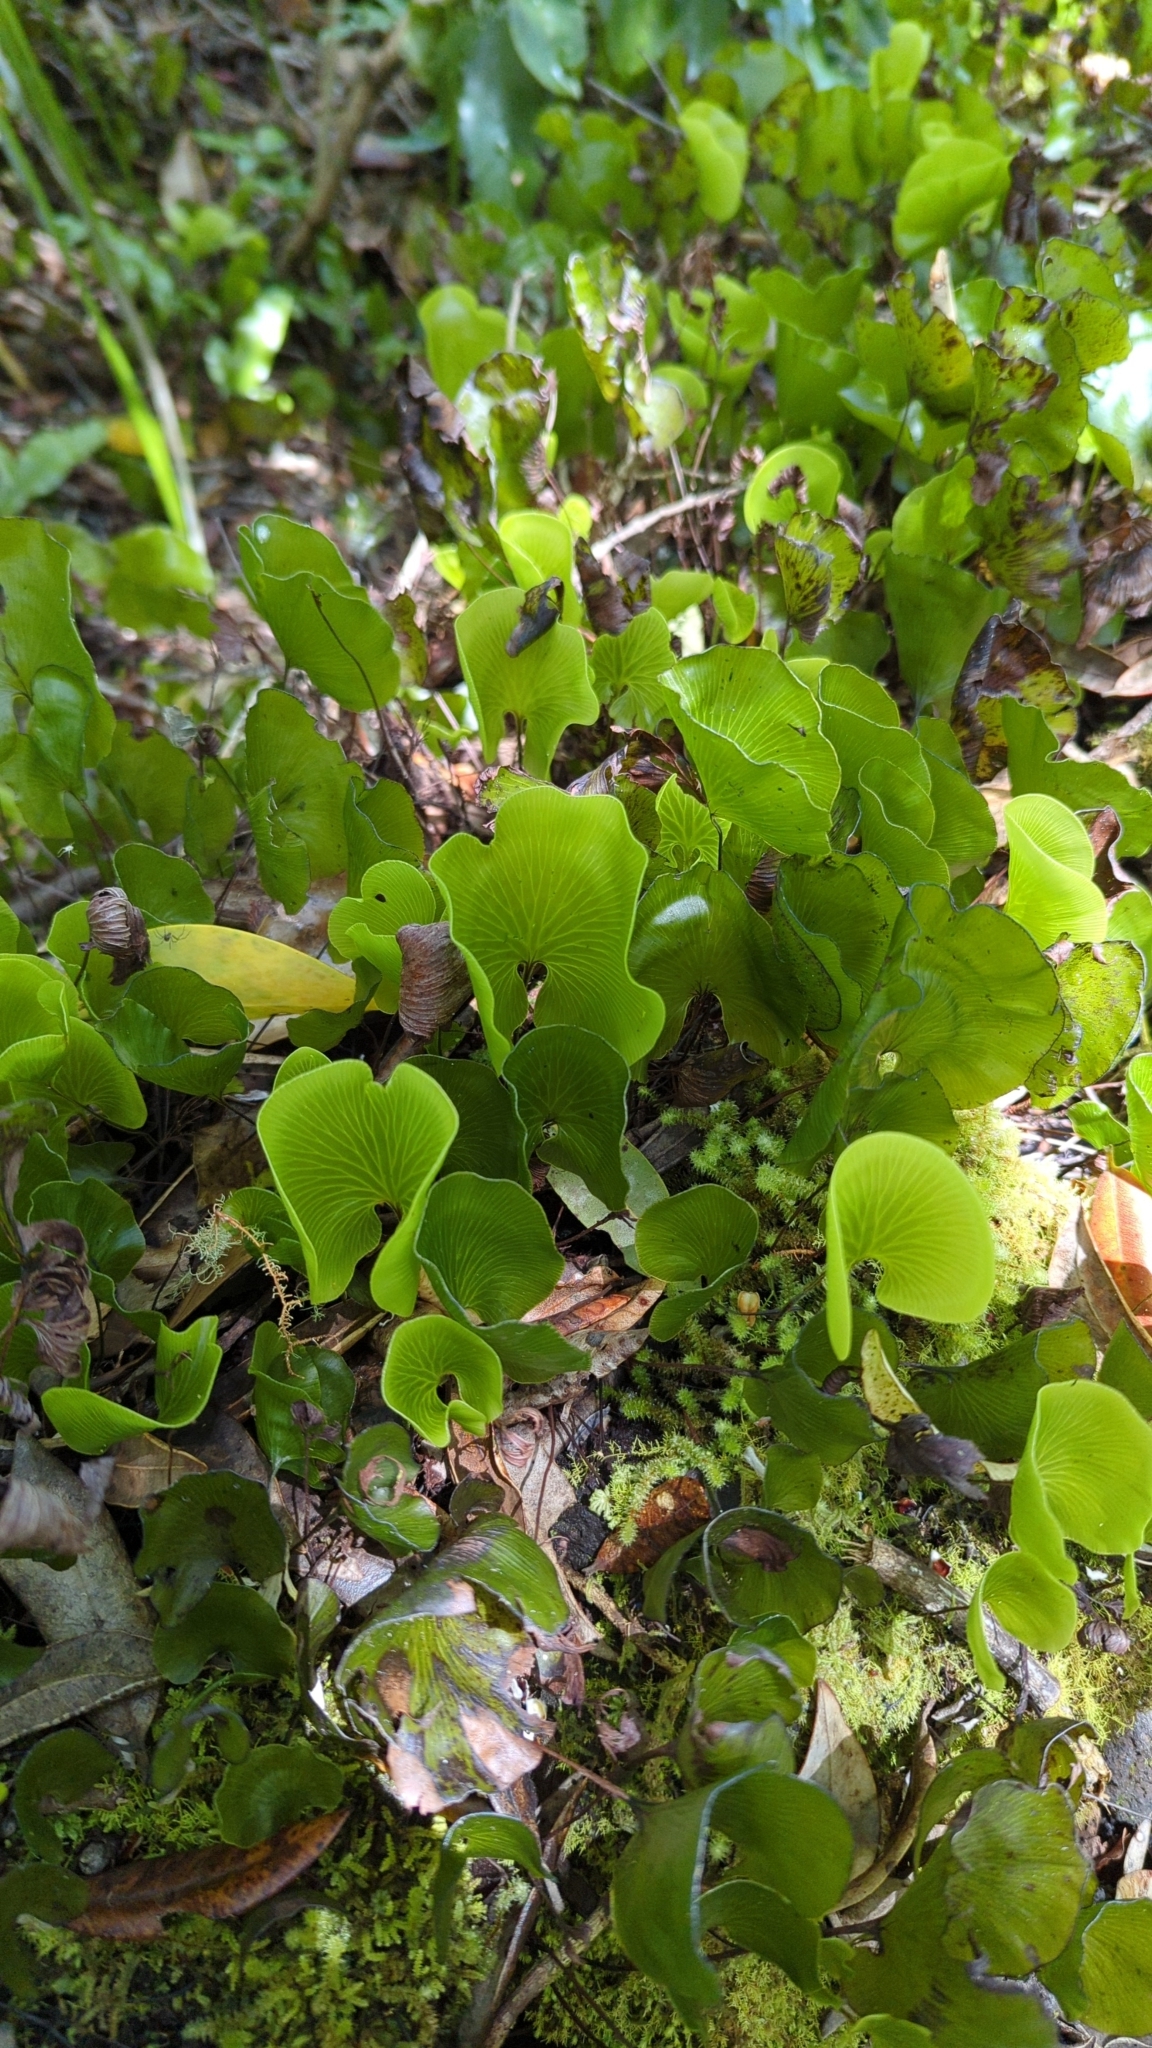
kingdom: Plantae
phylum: Tracheophyta
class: Polypodiopsida
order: Hymenophyllales
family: Hymenophyllaceae
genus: Hymenophyllum
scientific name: Hymenophyllum nephrophyllum
